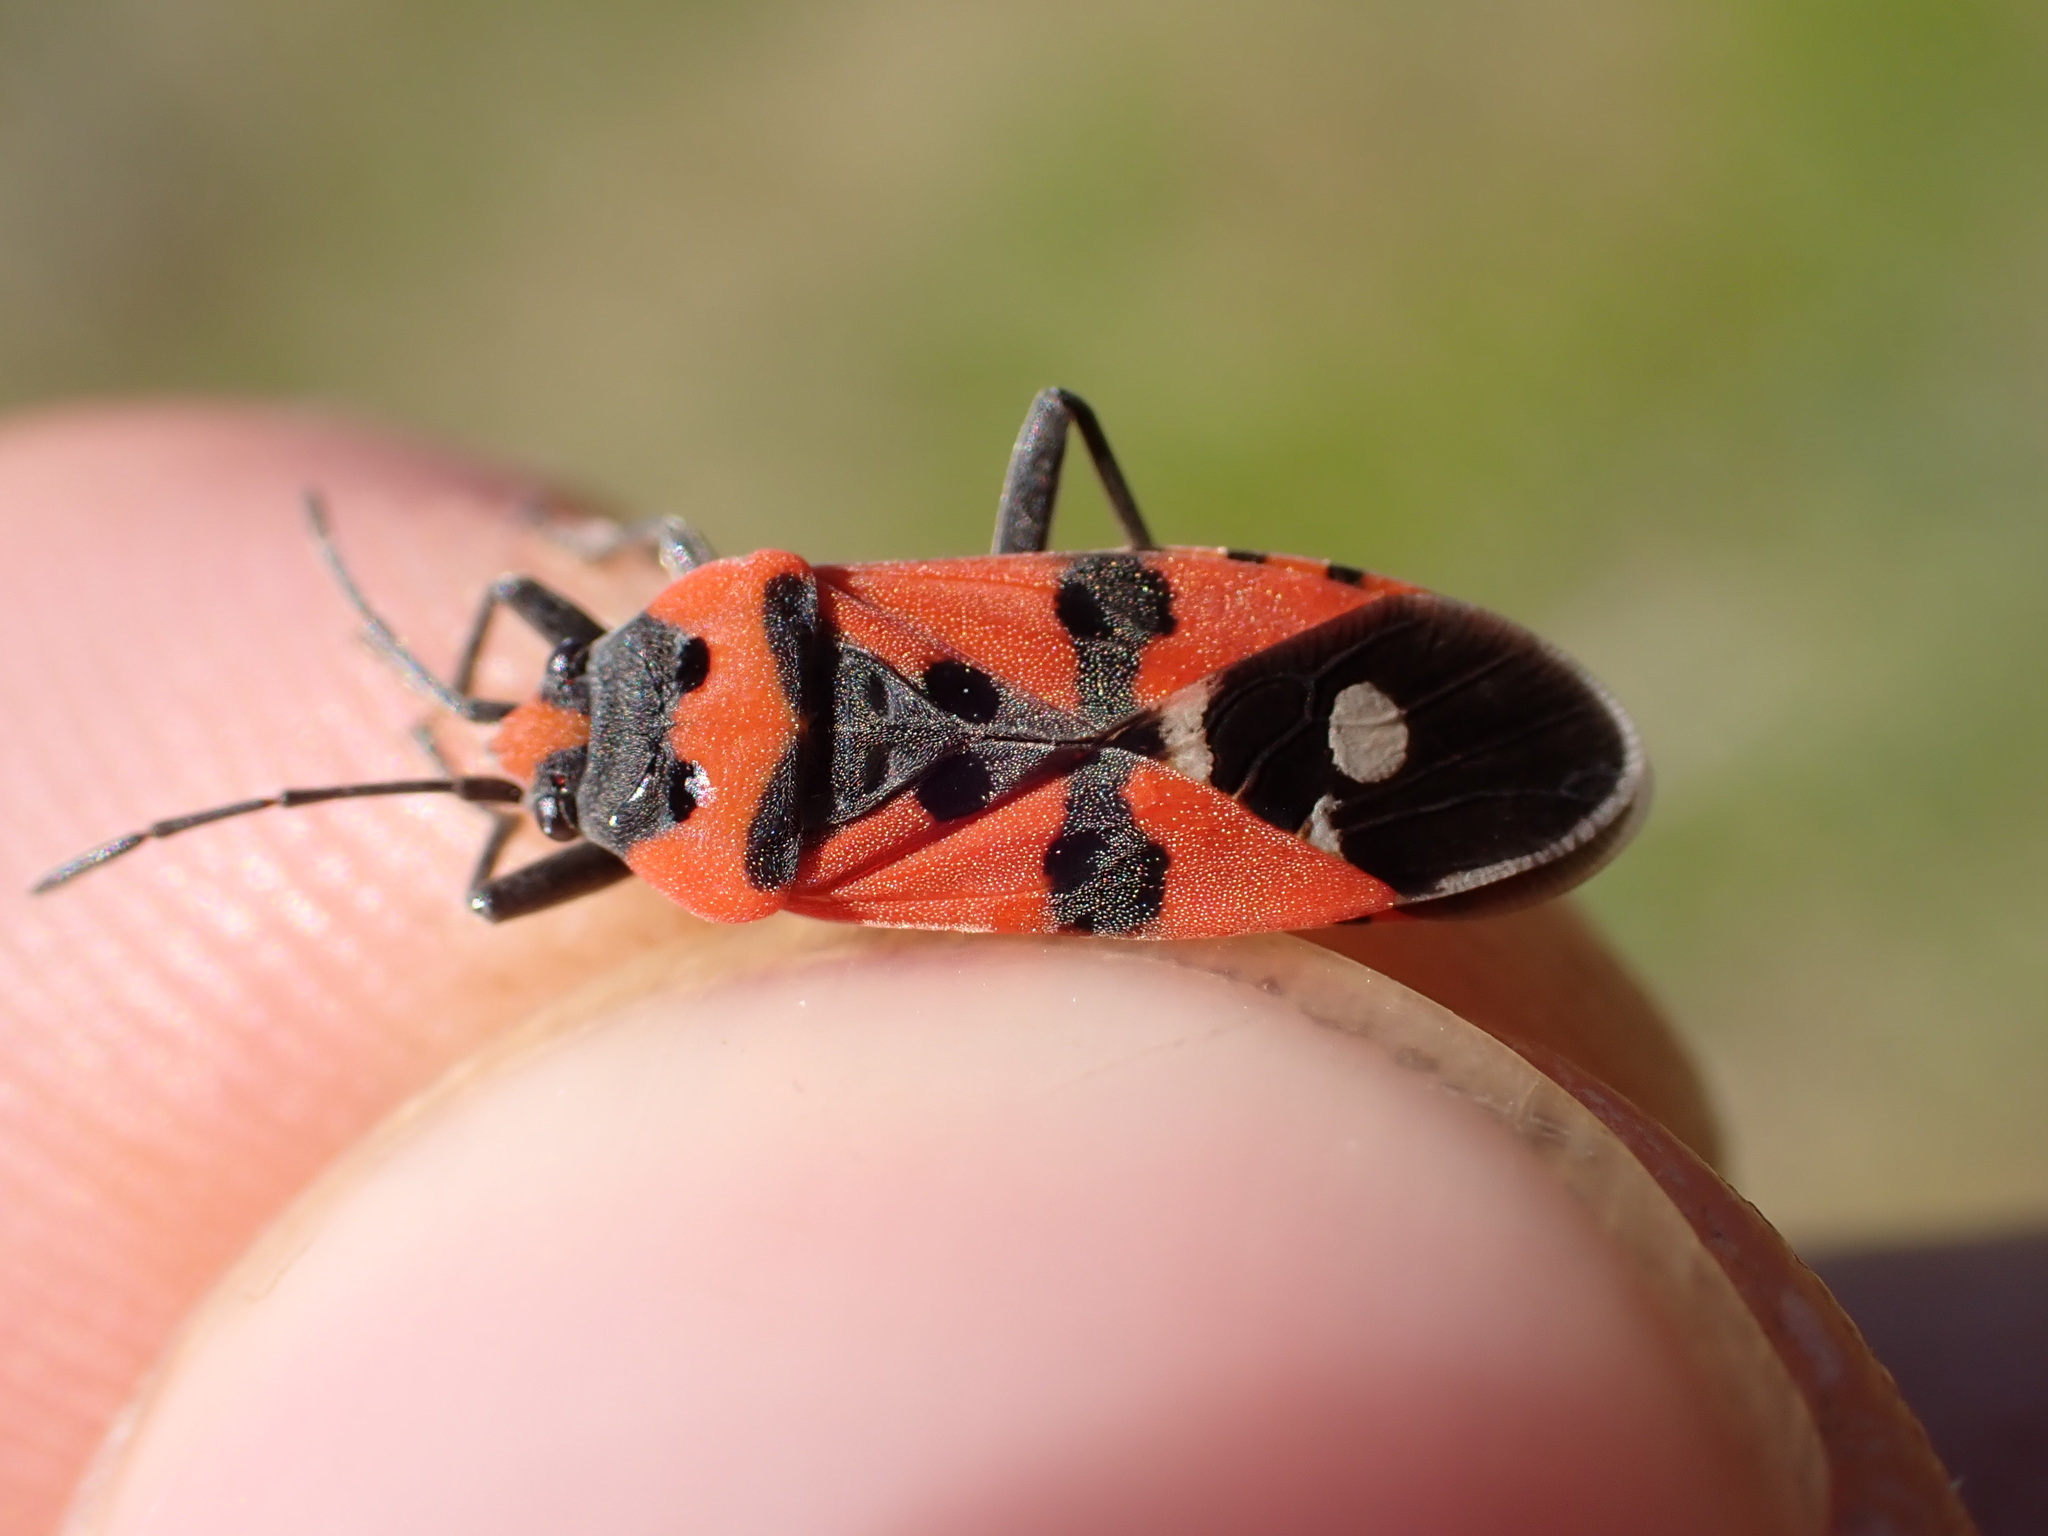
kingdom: Animalia
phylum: Arthropoda
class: Insecta
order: Hemiptera
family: Lygaeidae
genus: Lygaeus
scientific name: Lygaeus equestris
